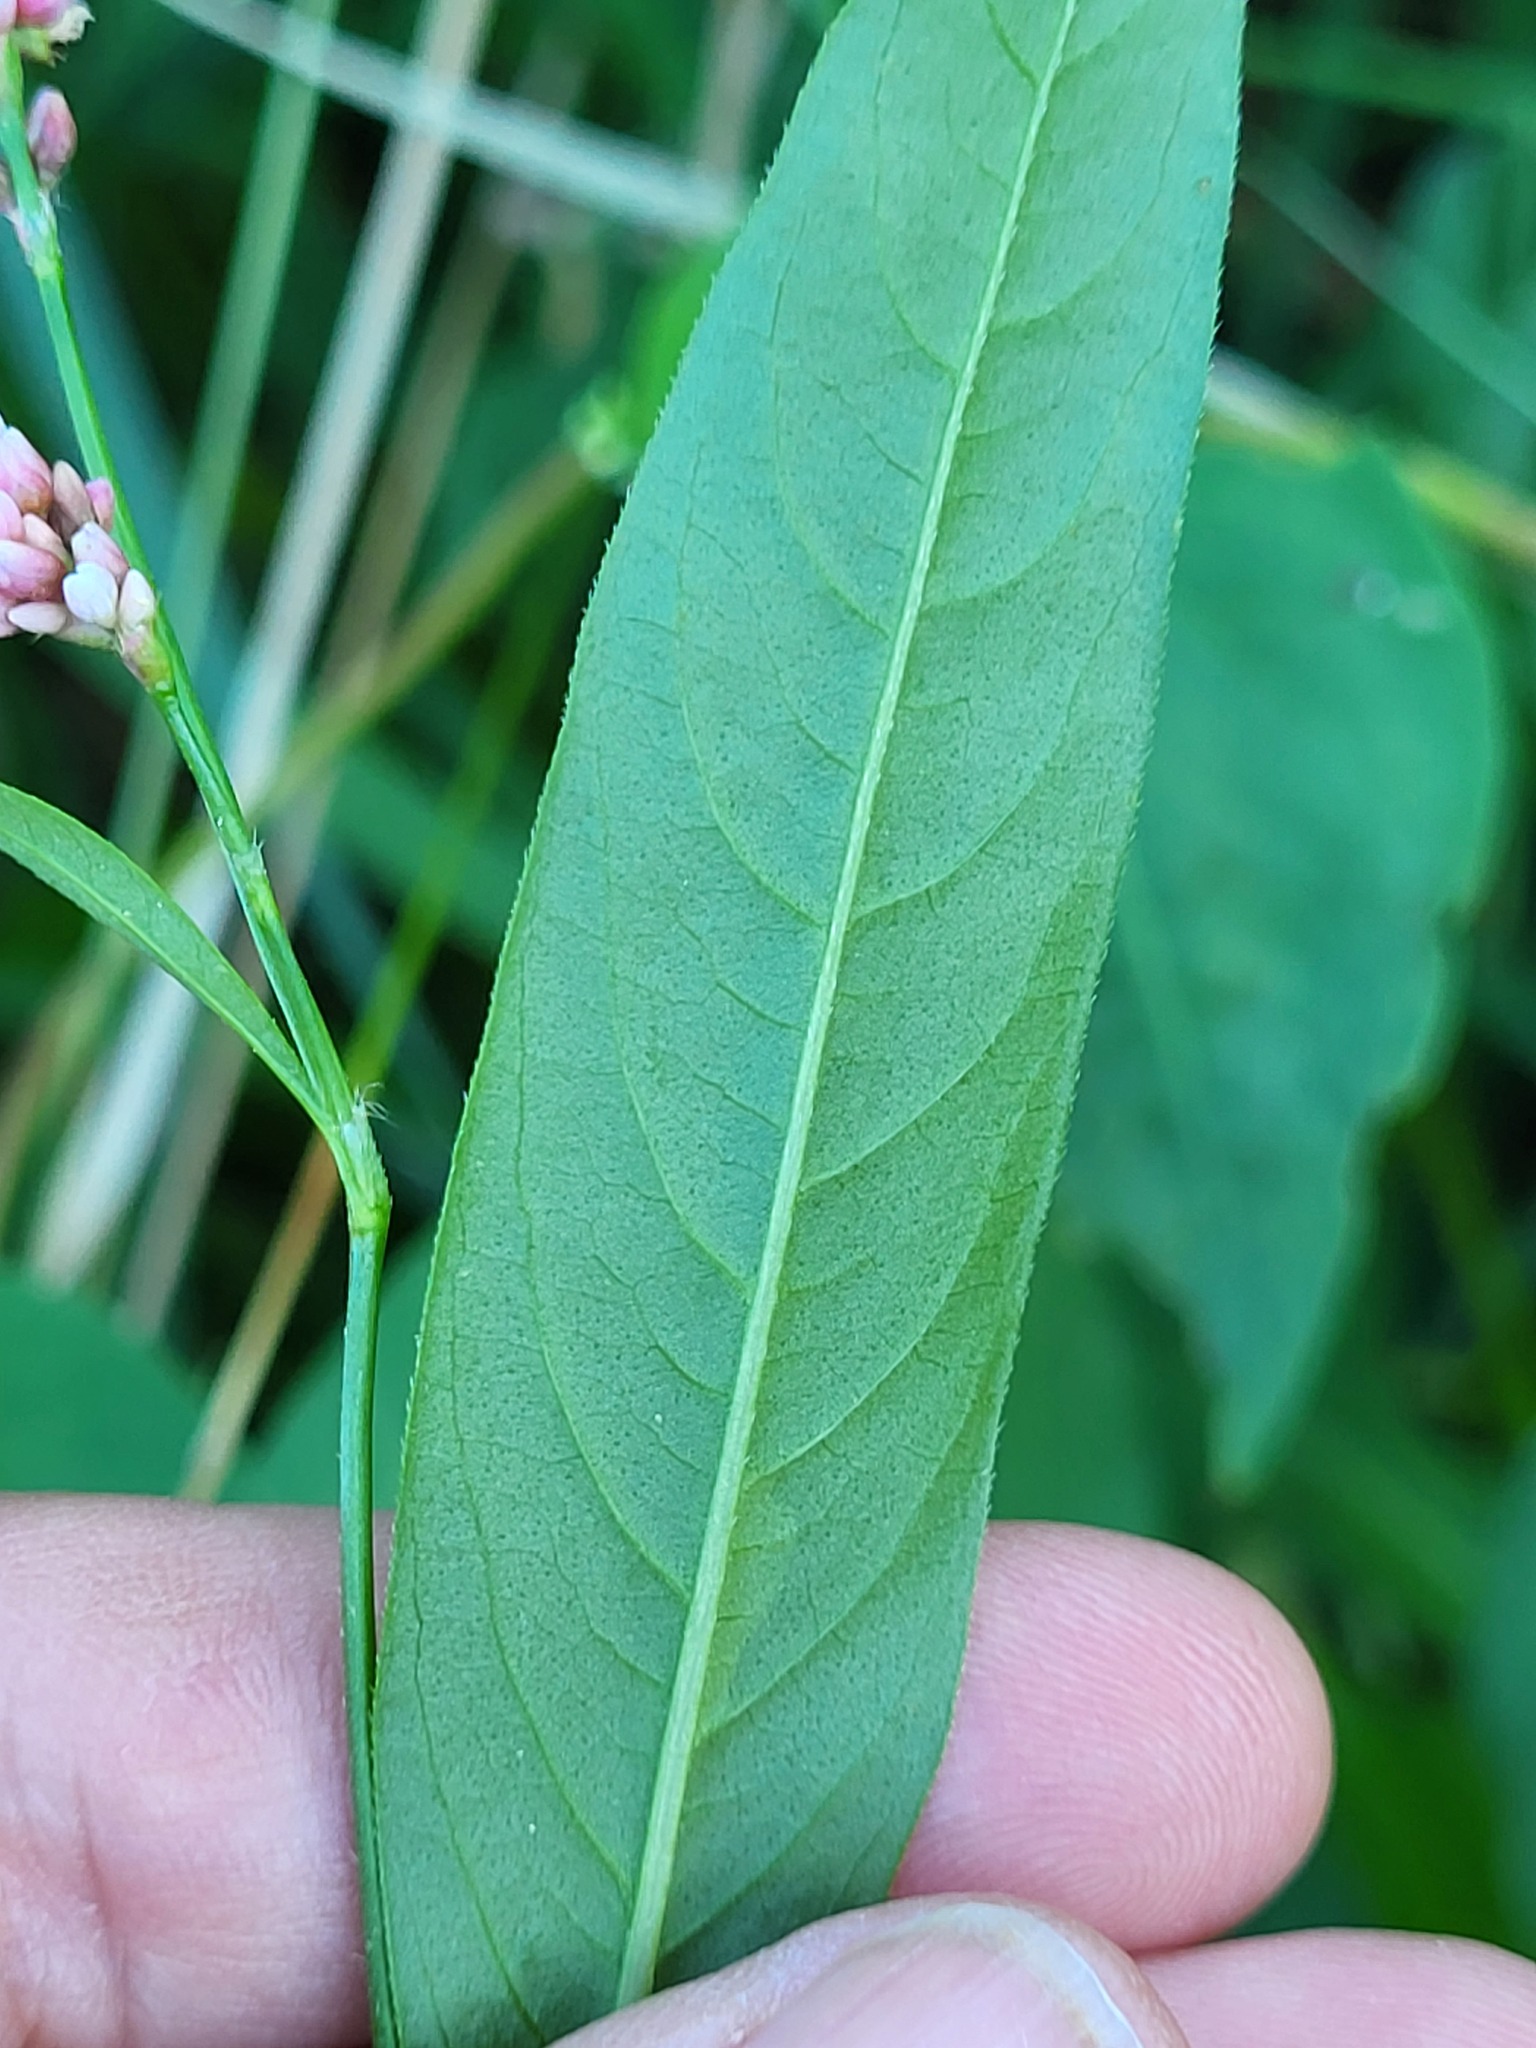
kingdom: Plantae
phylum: Tracheophyta
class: Magnoliopsida
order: Caryophyllales
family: Polygonaceae
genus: Persicaria
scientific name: Persicaria maculosa
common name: Redshank
